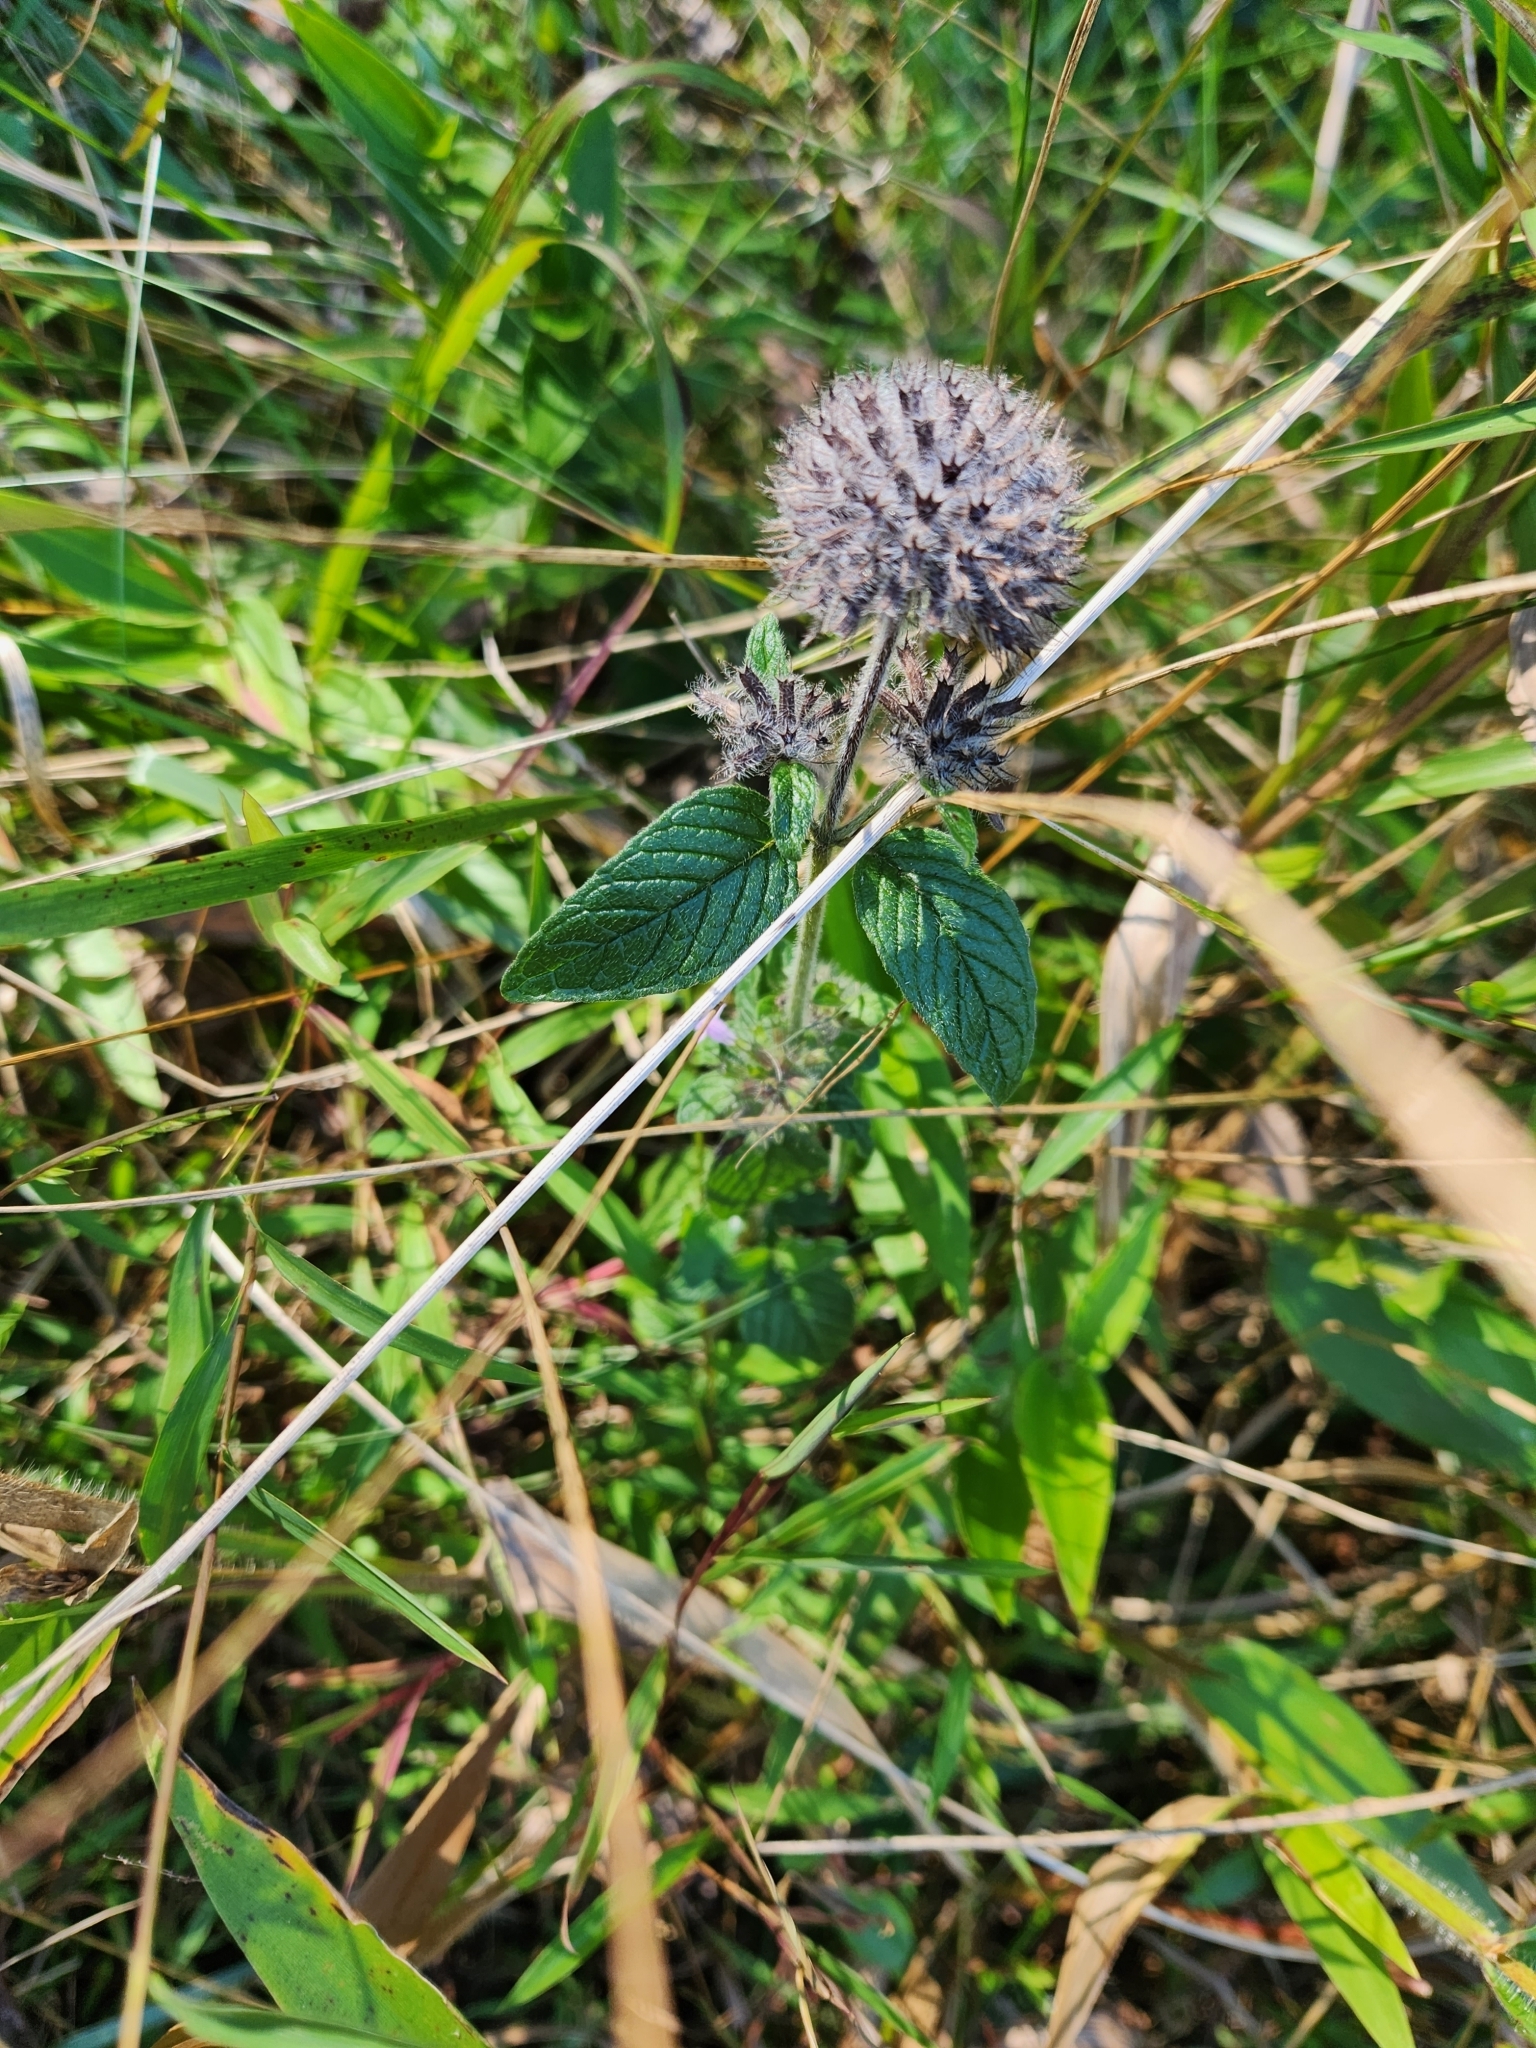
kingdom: Plantae
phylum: Tracheophyta
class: Magnoliopsida
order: Lamiales
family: Lamiaceae
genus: Clinopodium
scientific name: Clinopodium vulgare
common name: Wild basil
